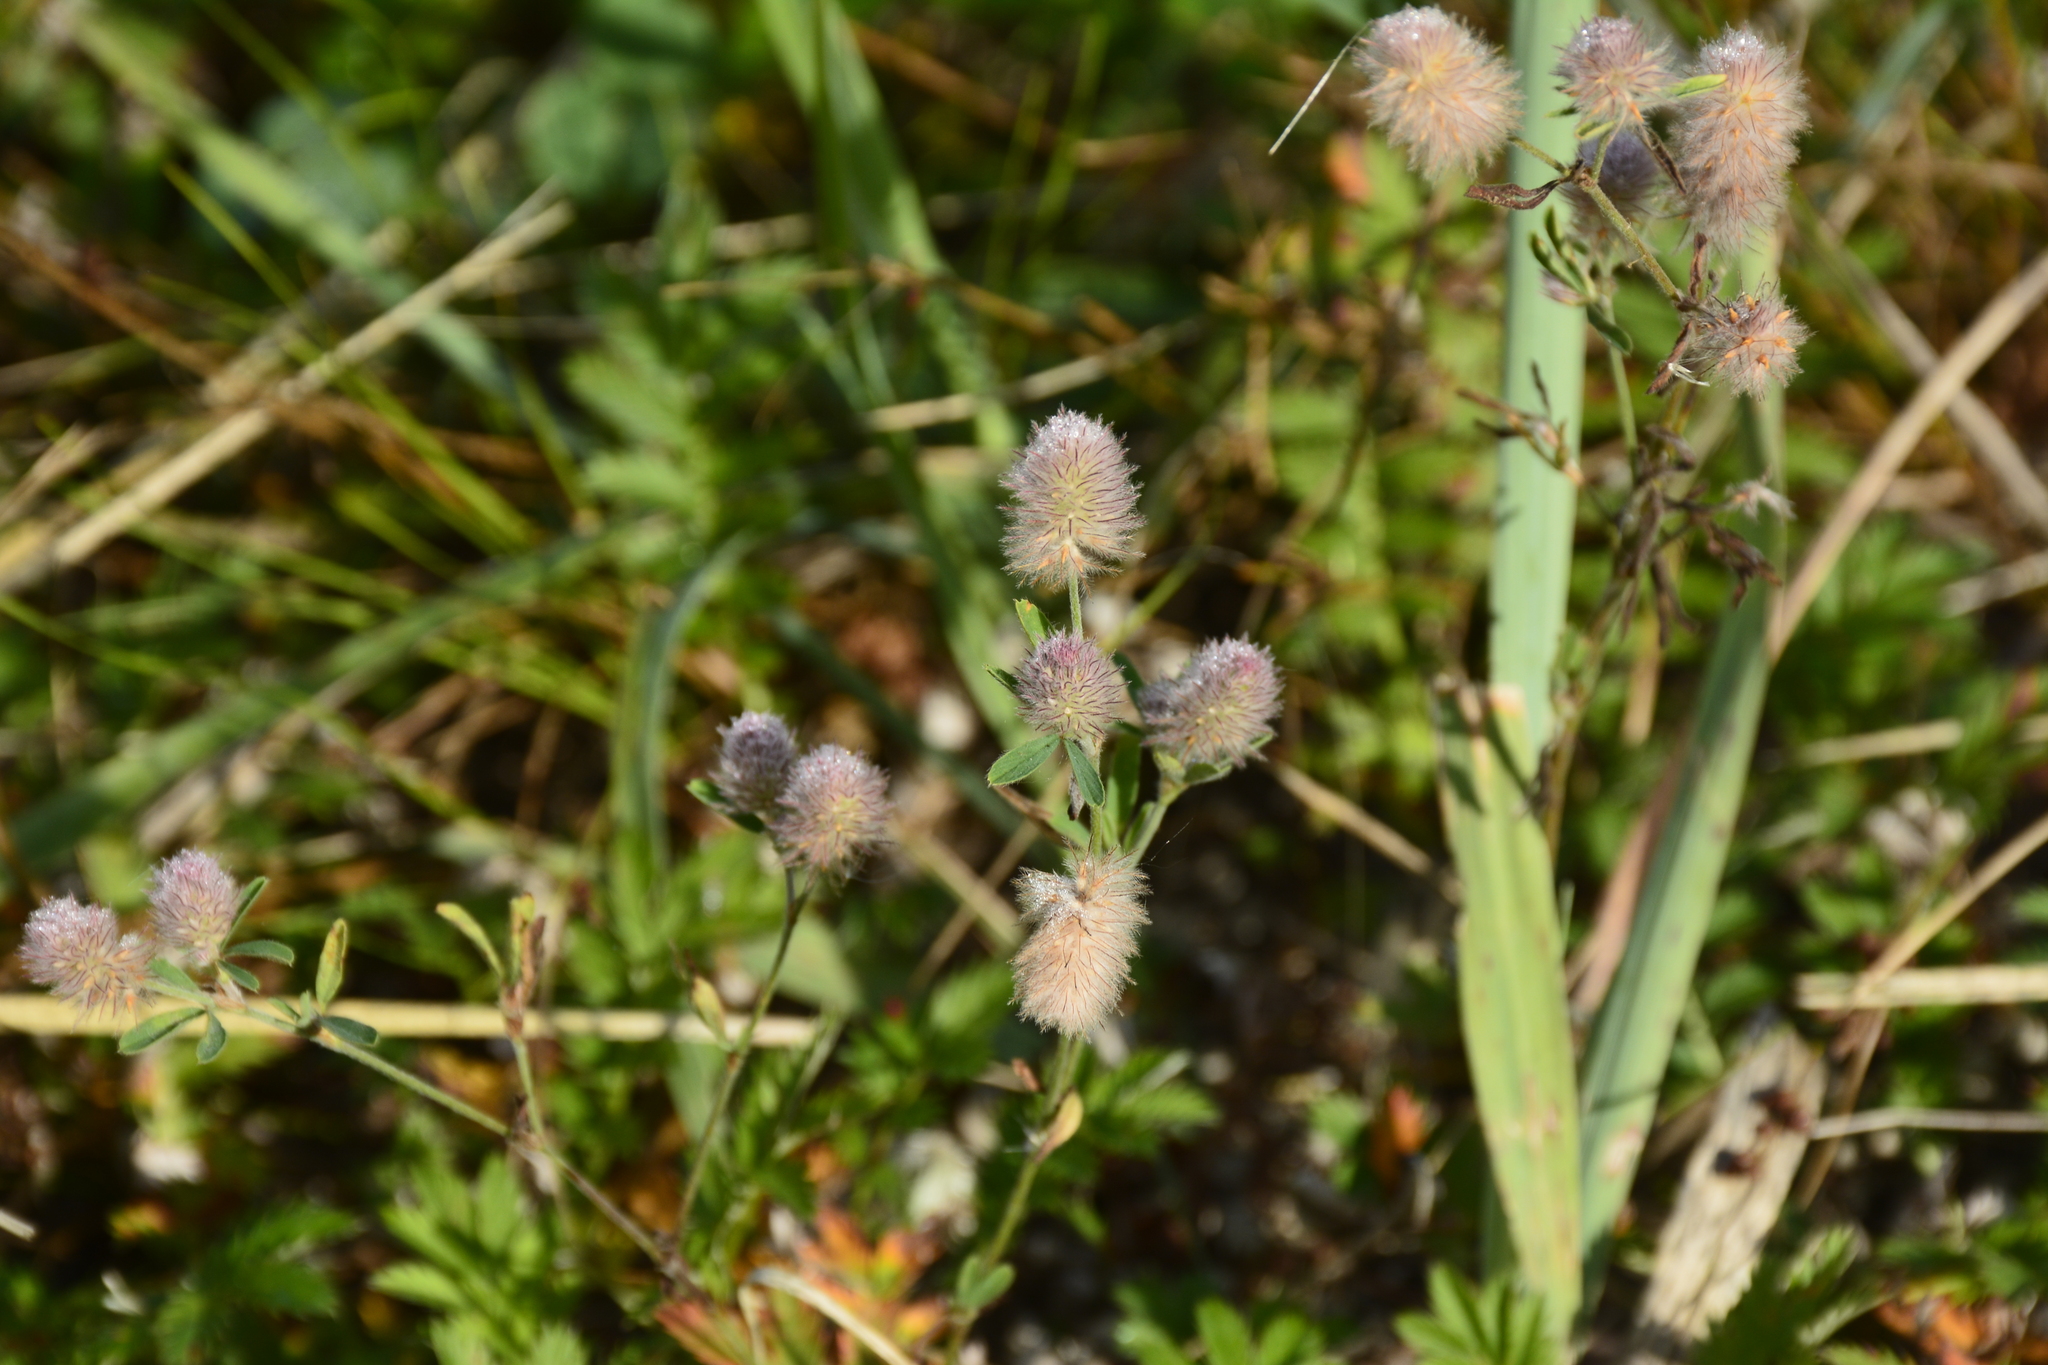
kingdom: Plantae
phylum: Tracheophyta
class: Magnoliopsida
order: Fabales
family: Fabaceae
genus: Trifolium
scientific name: Trifolium arvense
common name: Hare's-foot clover
